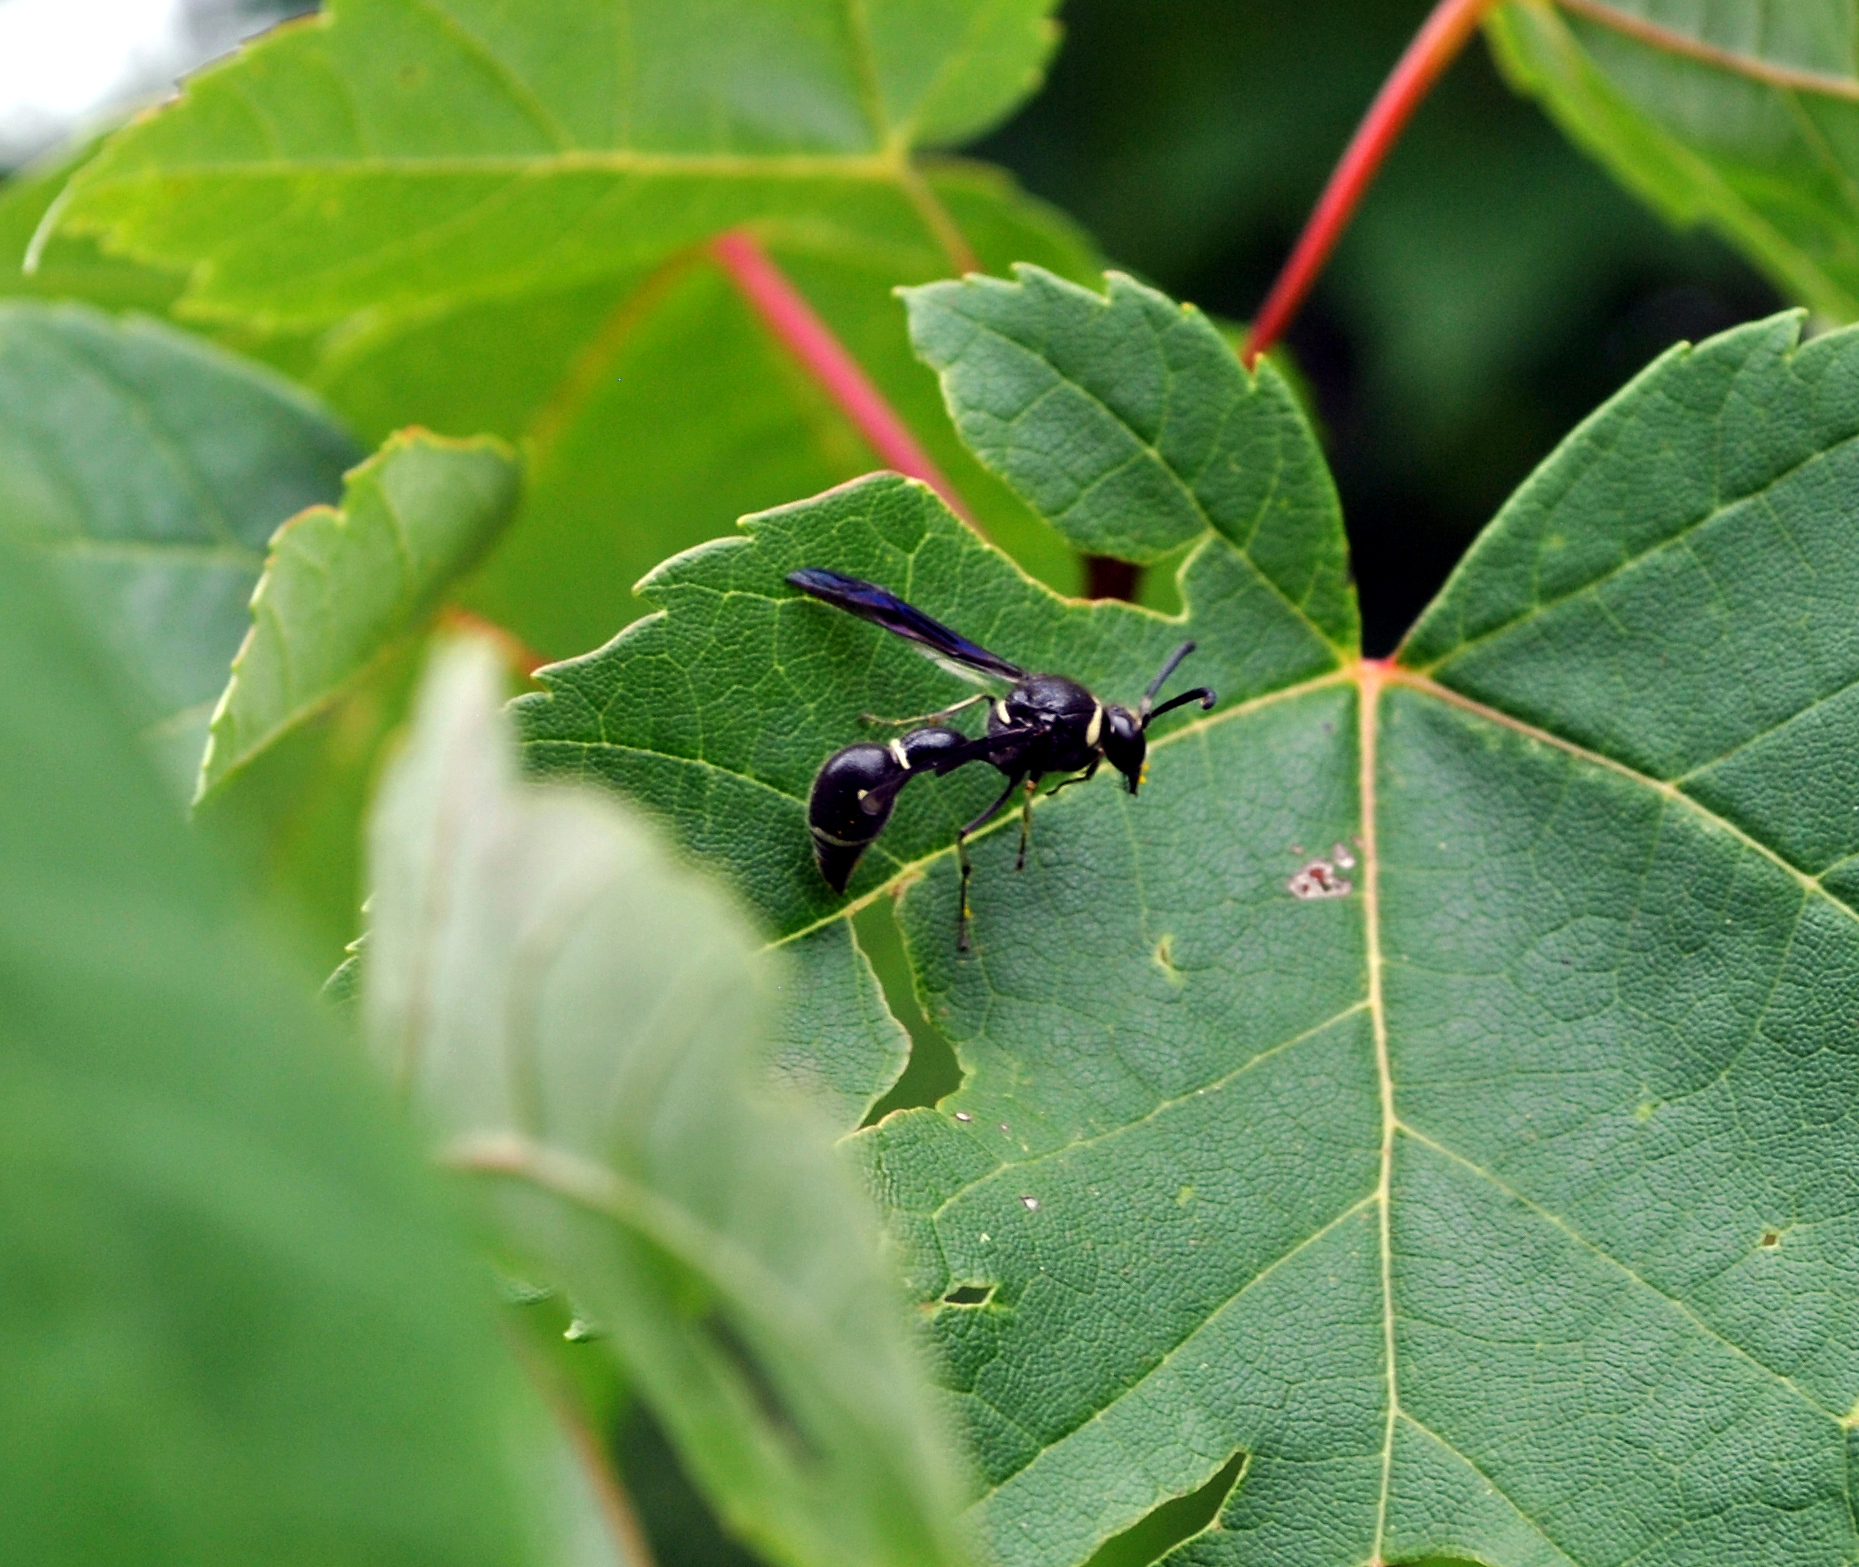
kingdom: Animalia
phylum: Arthropoda
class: Insecta
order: Hymenoptera
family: Vespidae
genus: Eumenes
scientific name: Eumenes fraternus
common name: Fraternal potter wasp
